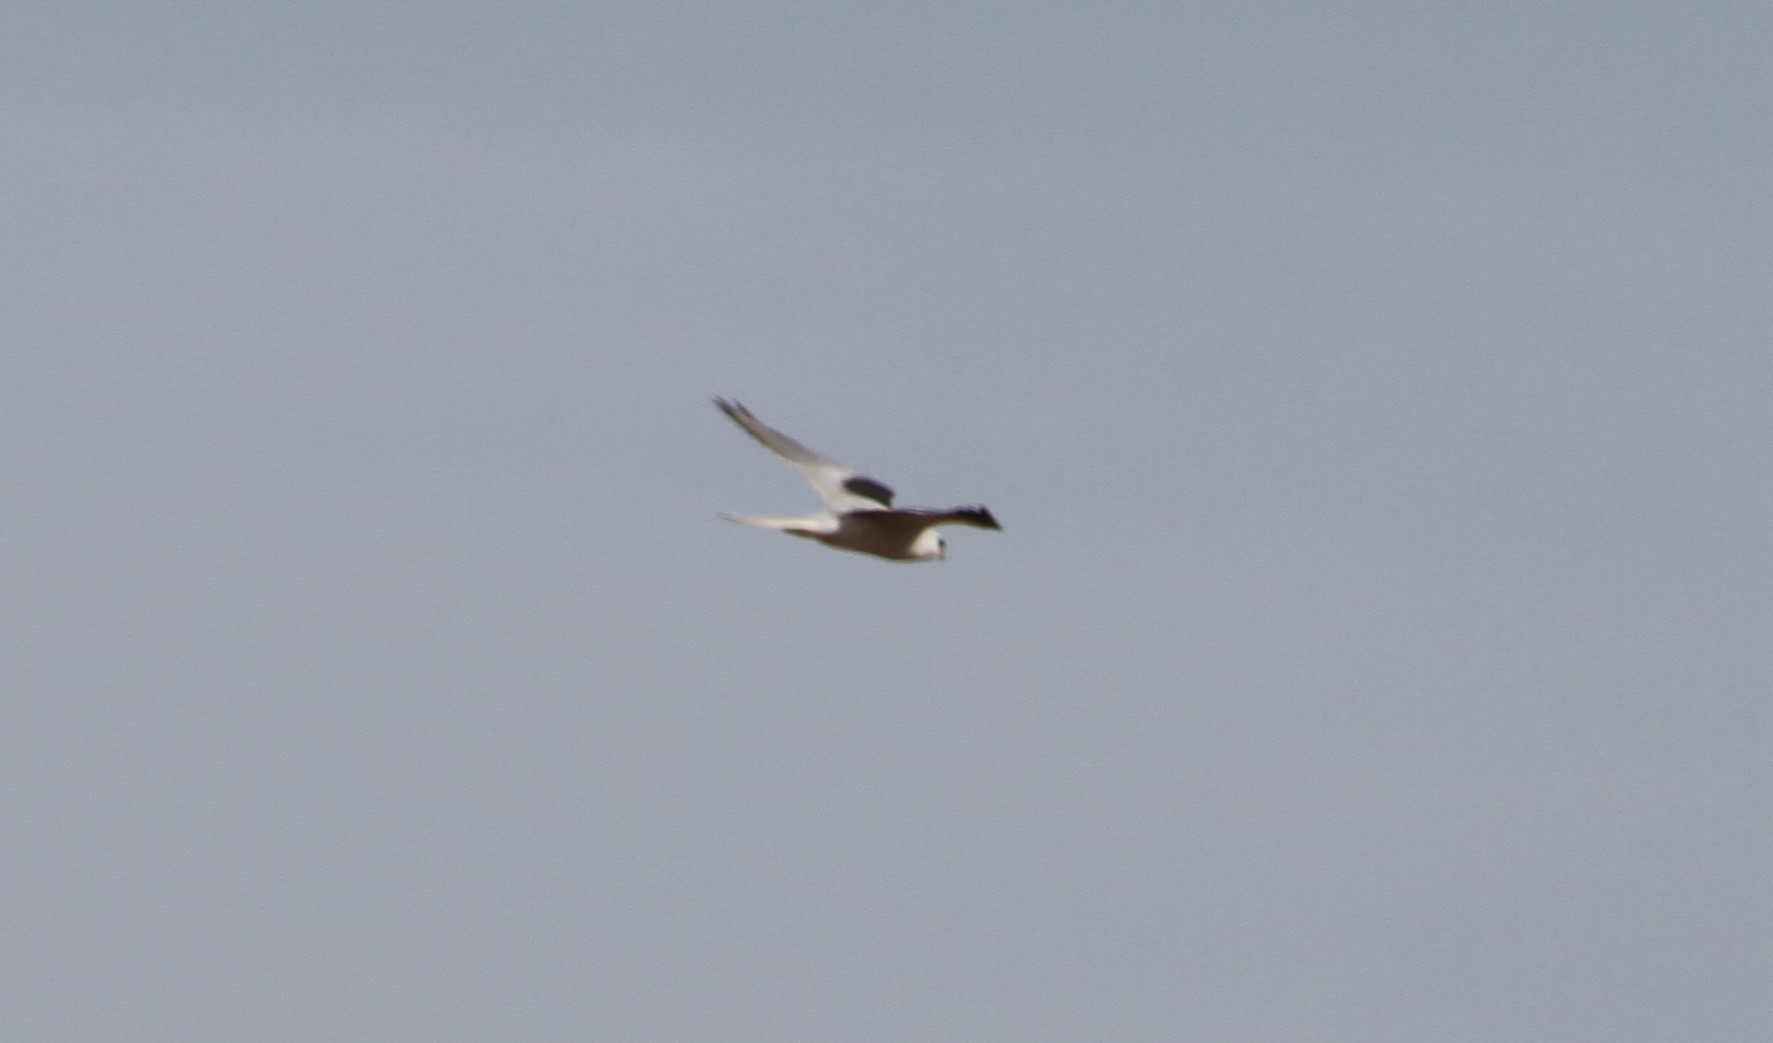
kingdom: Animalia
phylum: Chordata
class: Aves
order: Accipitriformes
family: Accipitridae
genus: Elanus
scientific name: Elanus leucurus
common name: White-tailed kite
